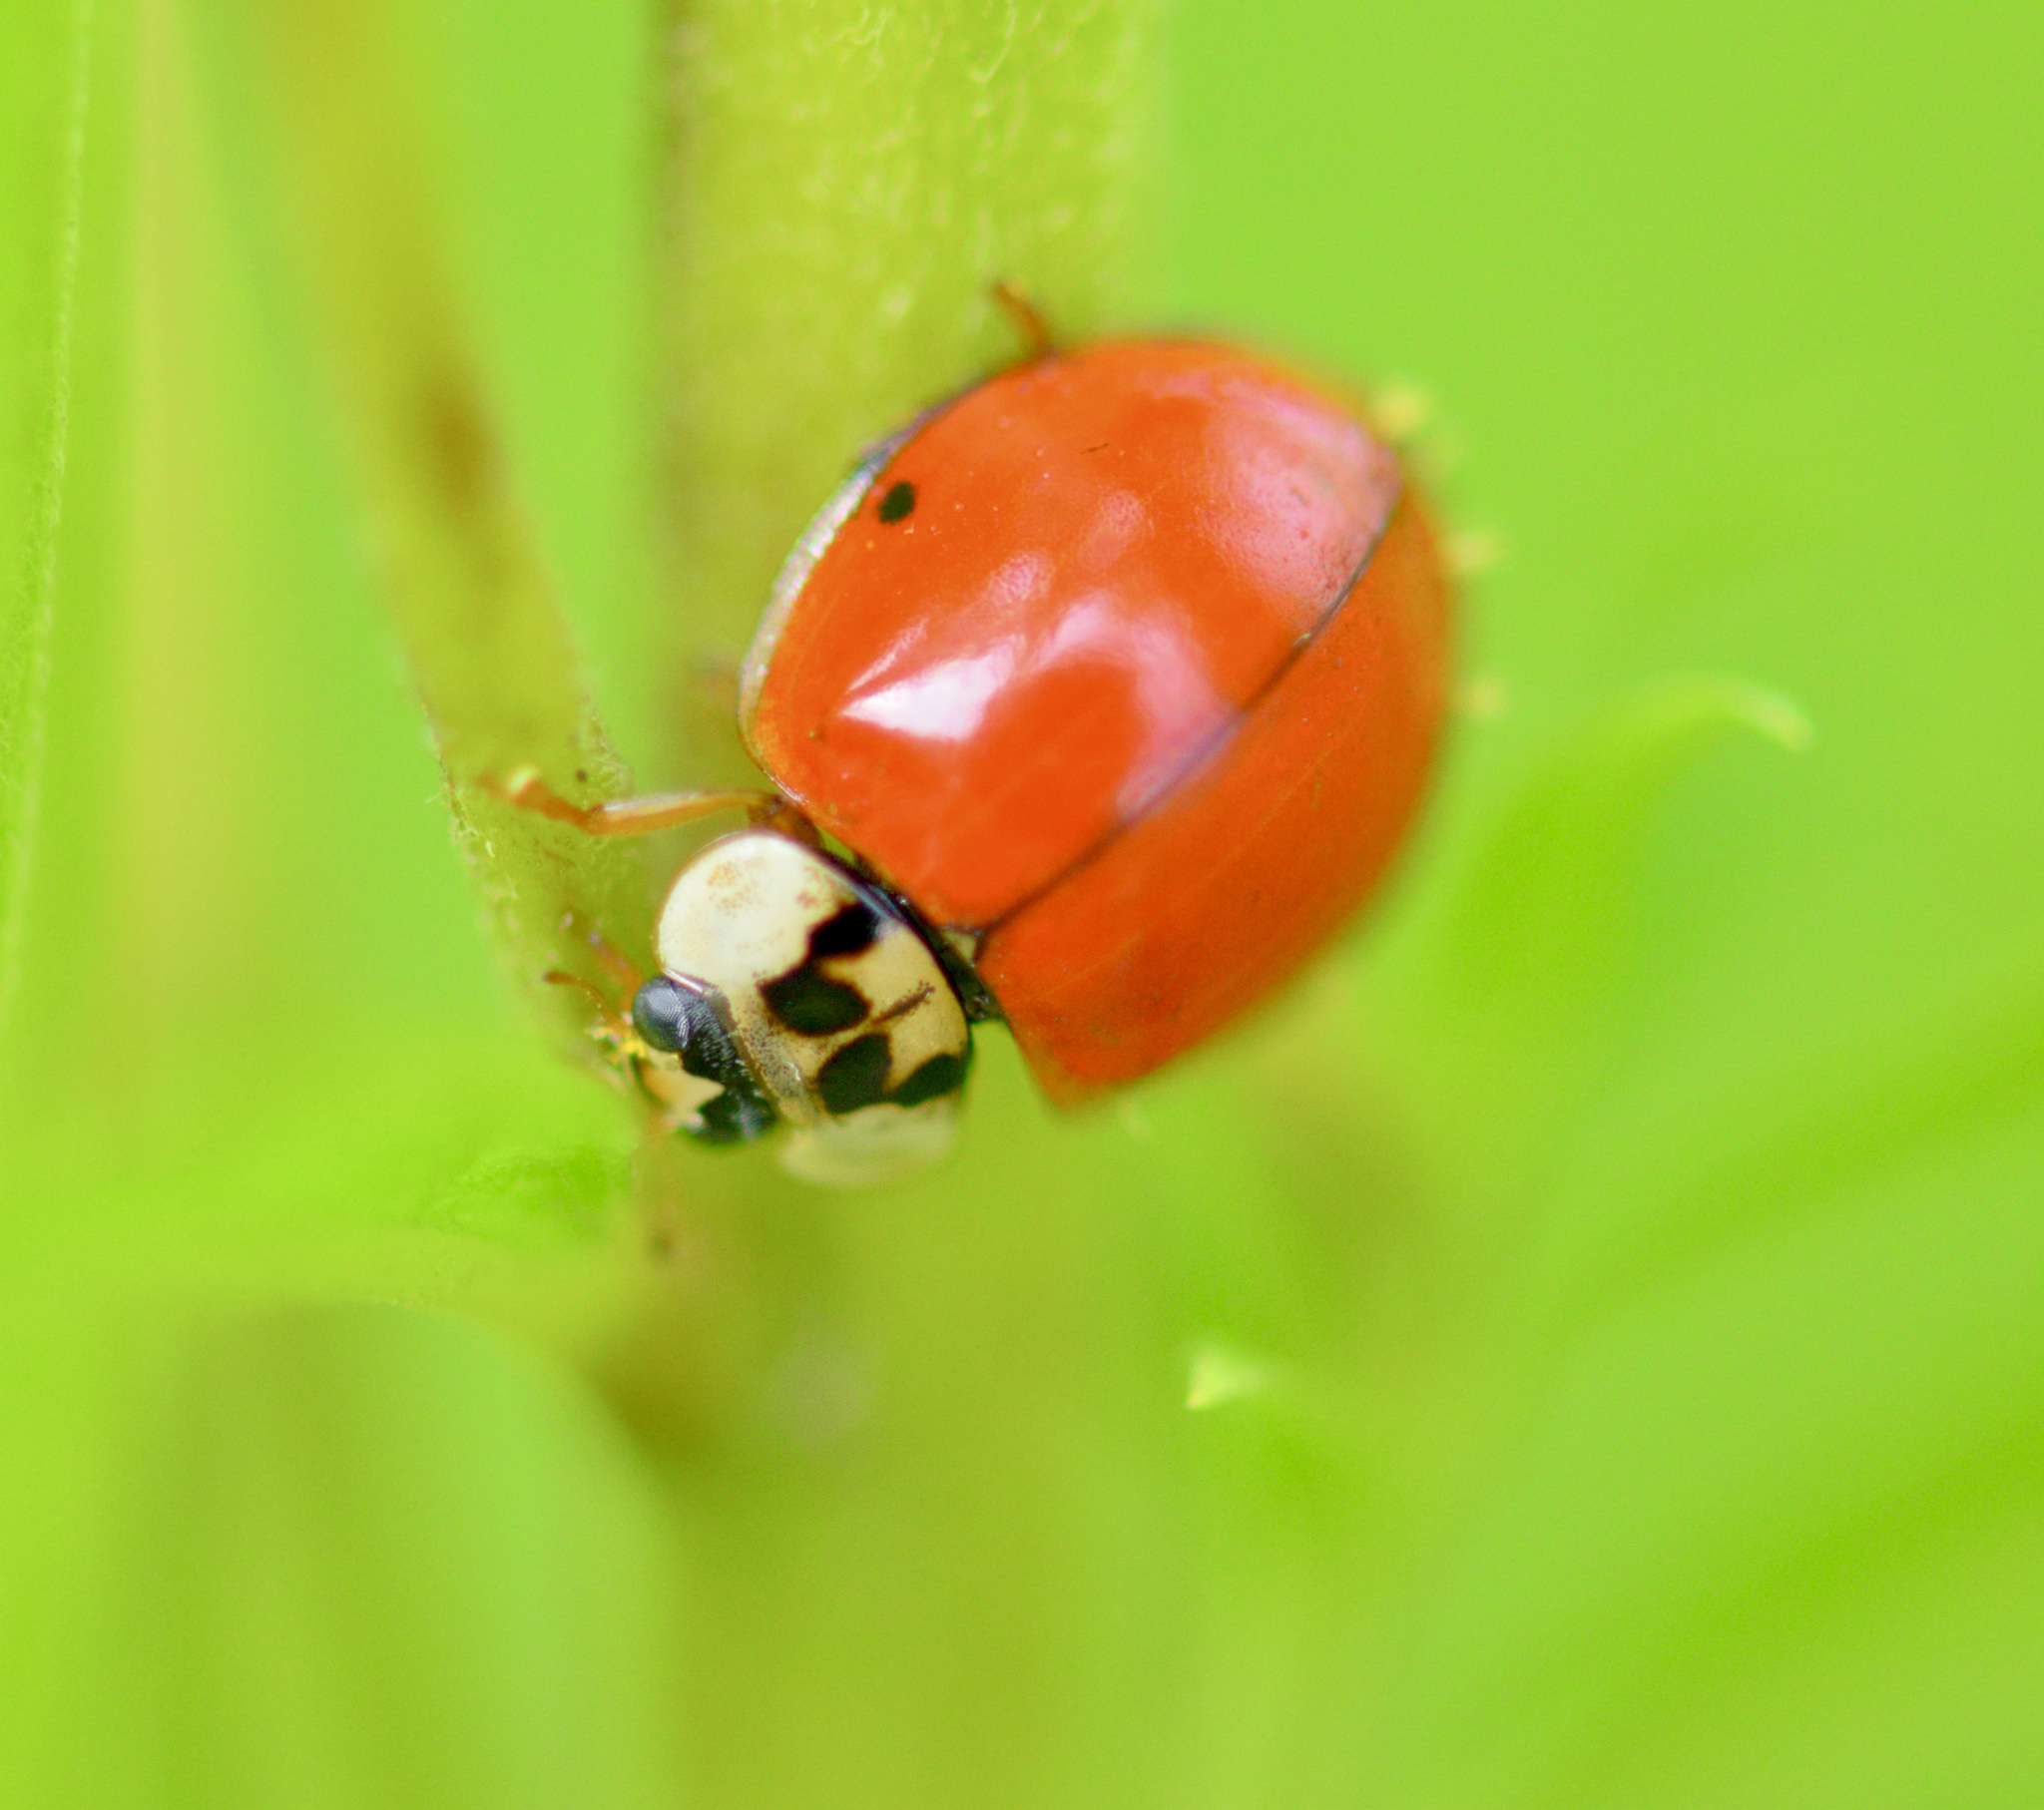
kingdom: Animalia
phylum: Arthropoda
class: Insecta
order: Coleoptera
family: Coccinellidae
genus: Harmonia
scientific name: Harmonia axyridis
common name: Harlequin ladybird
